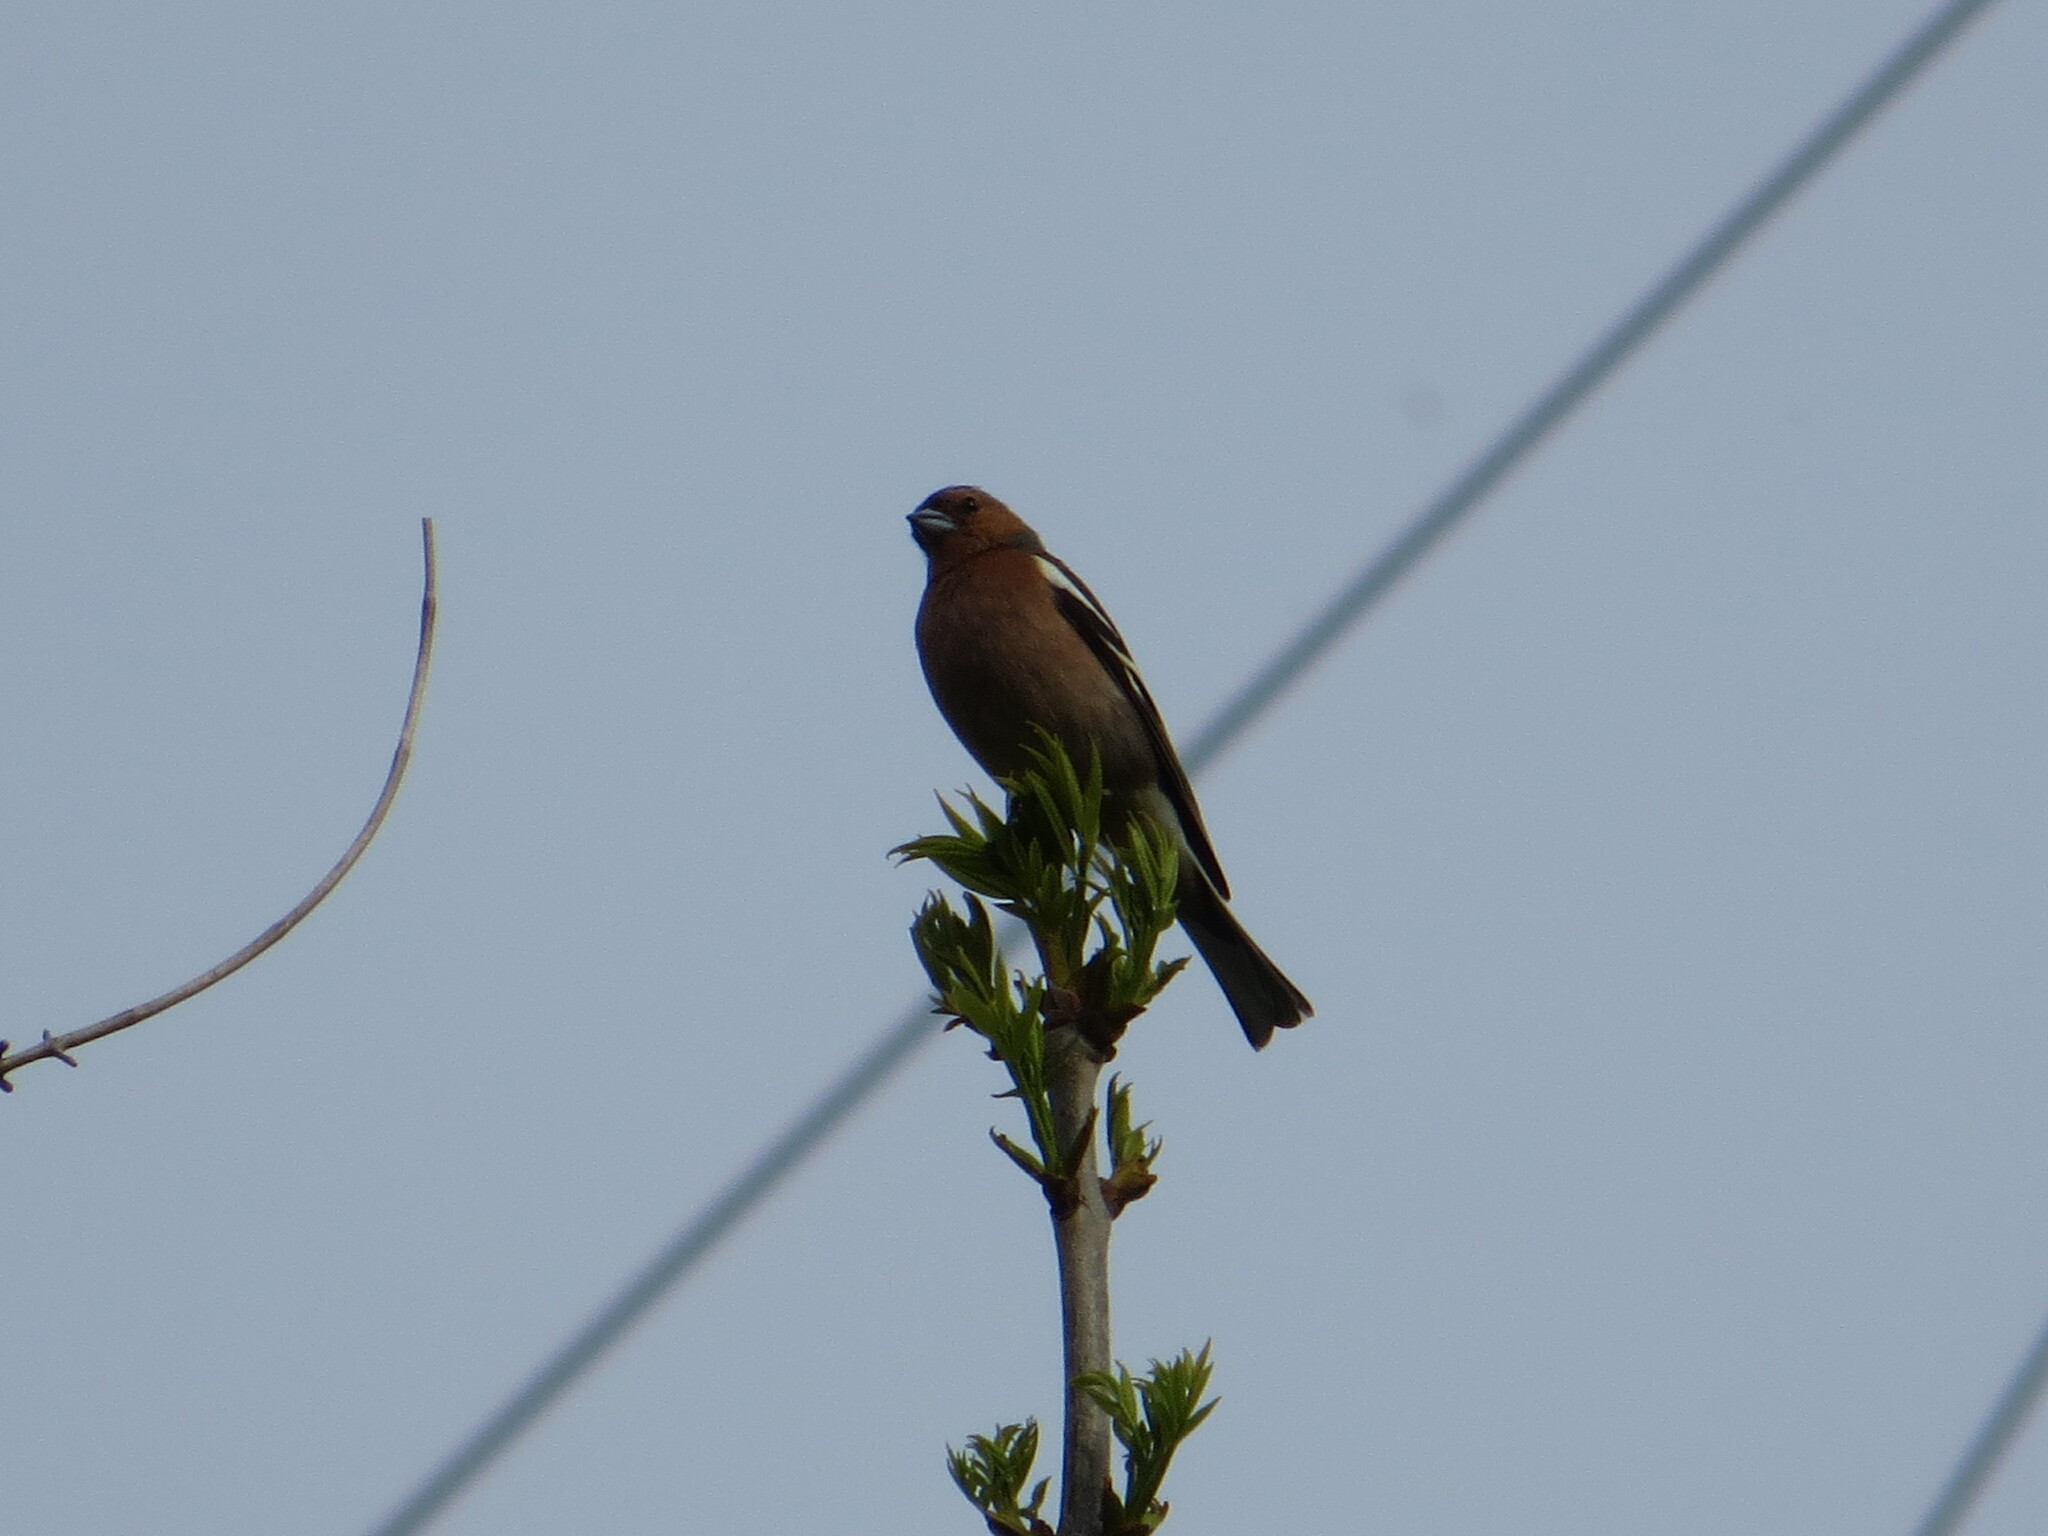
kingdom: Animalia
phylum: Chordata
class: Aves
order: Passeriformes
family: Fringillidae
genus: Fringilla
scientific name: Fringilla coelebs
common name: Common chaffinch
